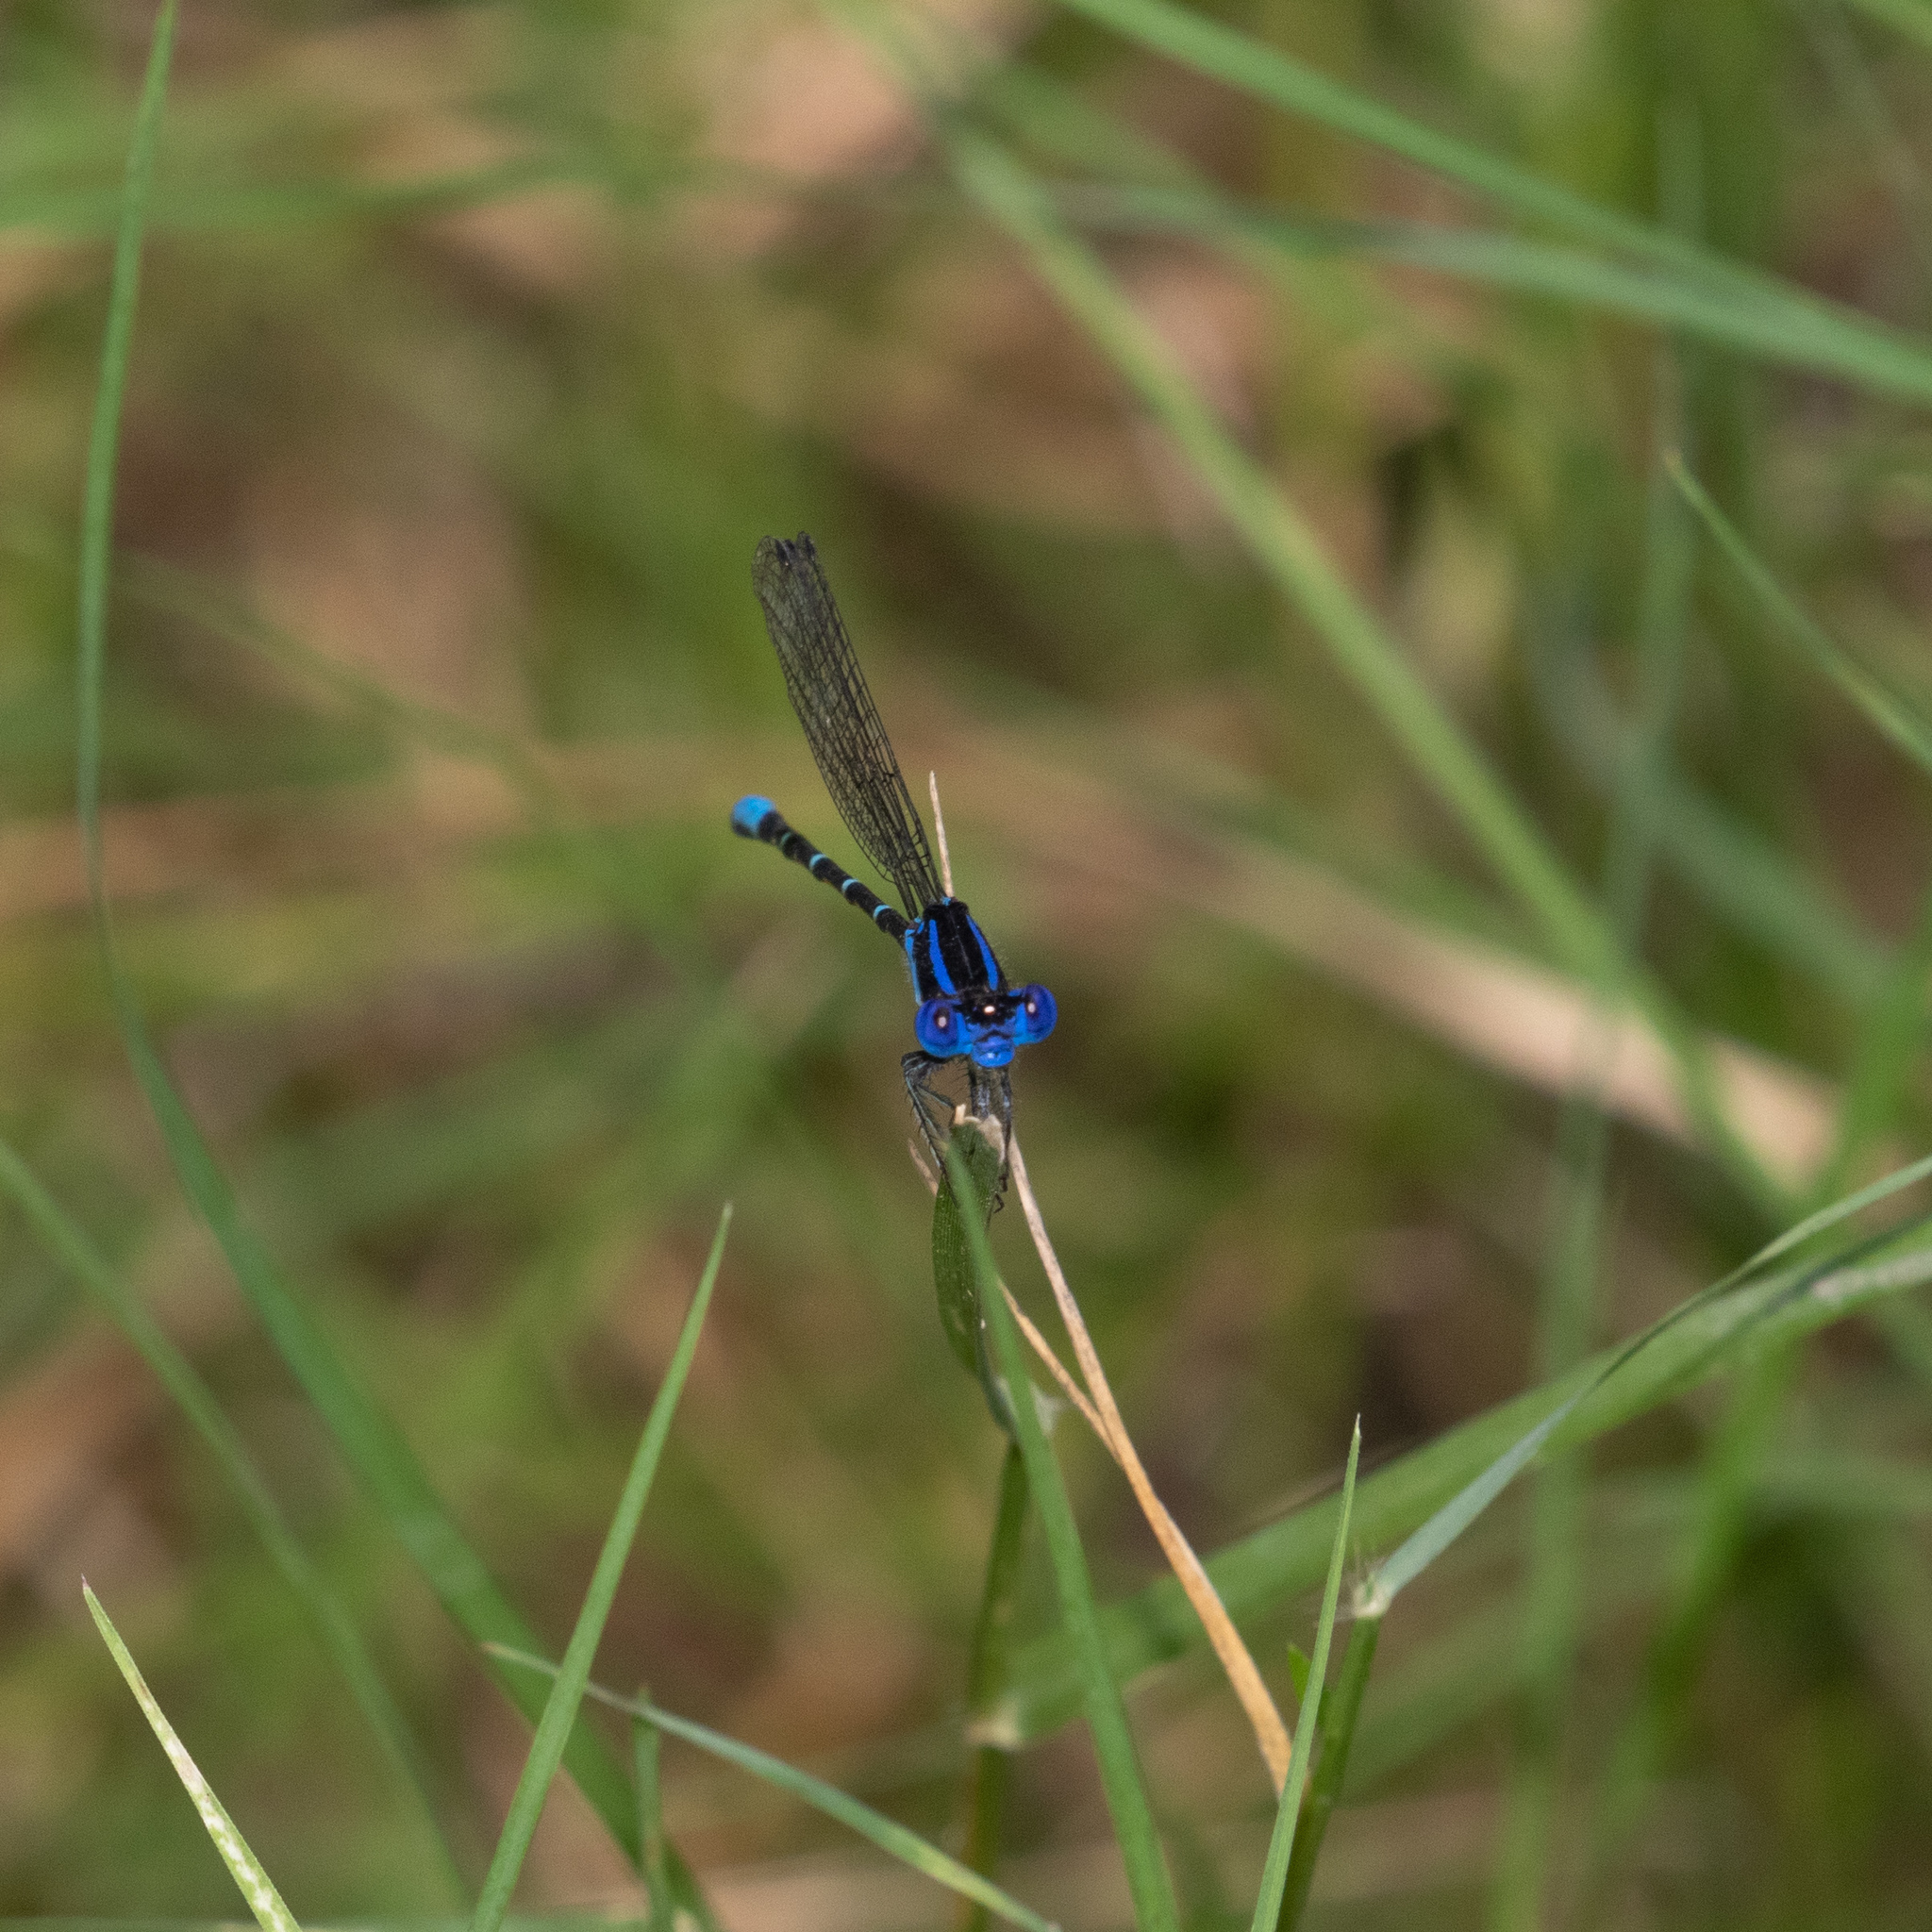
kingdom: Animalia
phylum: Arthropoda
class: Insecta
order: Odonata
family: Coenagrionidae
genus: Argia
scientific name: Argia sedula
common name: Blue-ringed dancer
